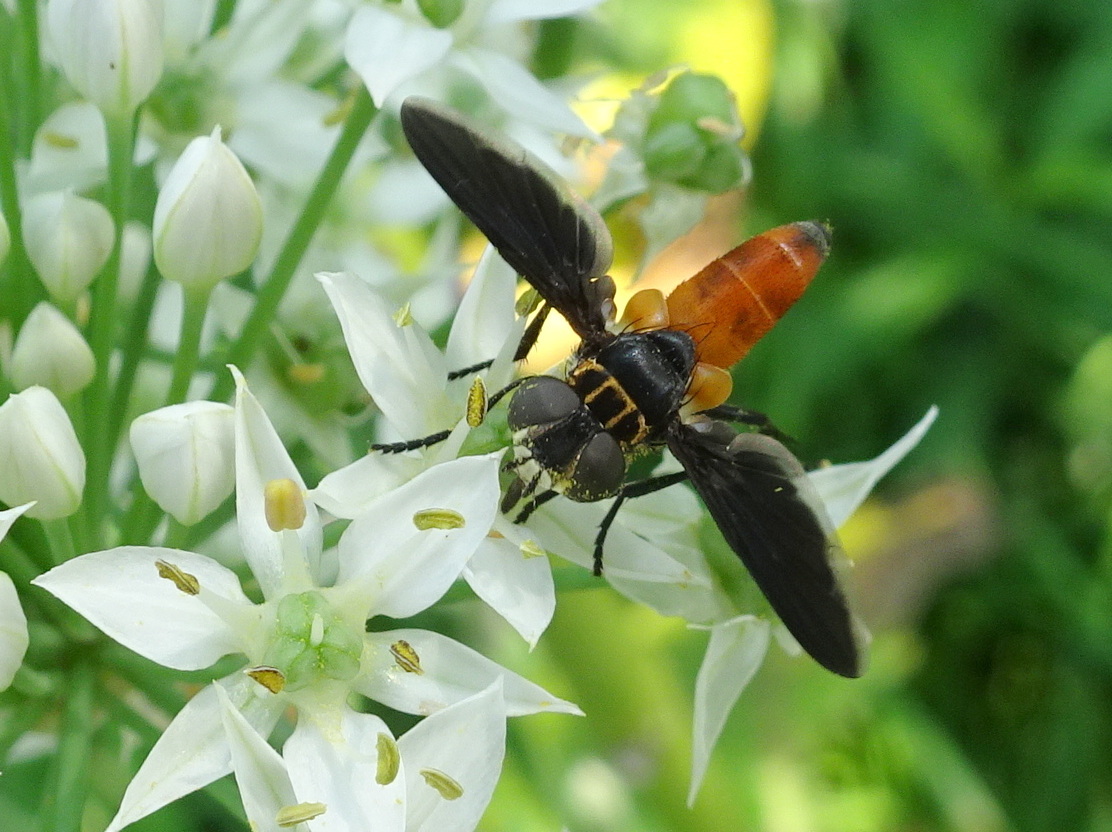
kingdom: Animalia
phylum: Arthropoda
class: Insecta
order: Diptera
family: Tachinidae
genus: Trichopoda
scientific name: Trichopoda pennipes
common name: Tachinid fly
